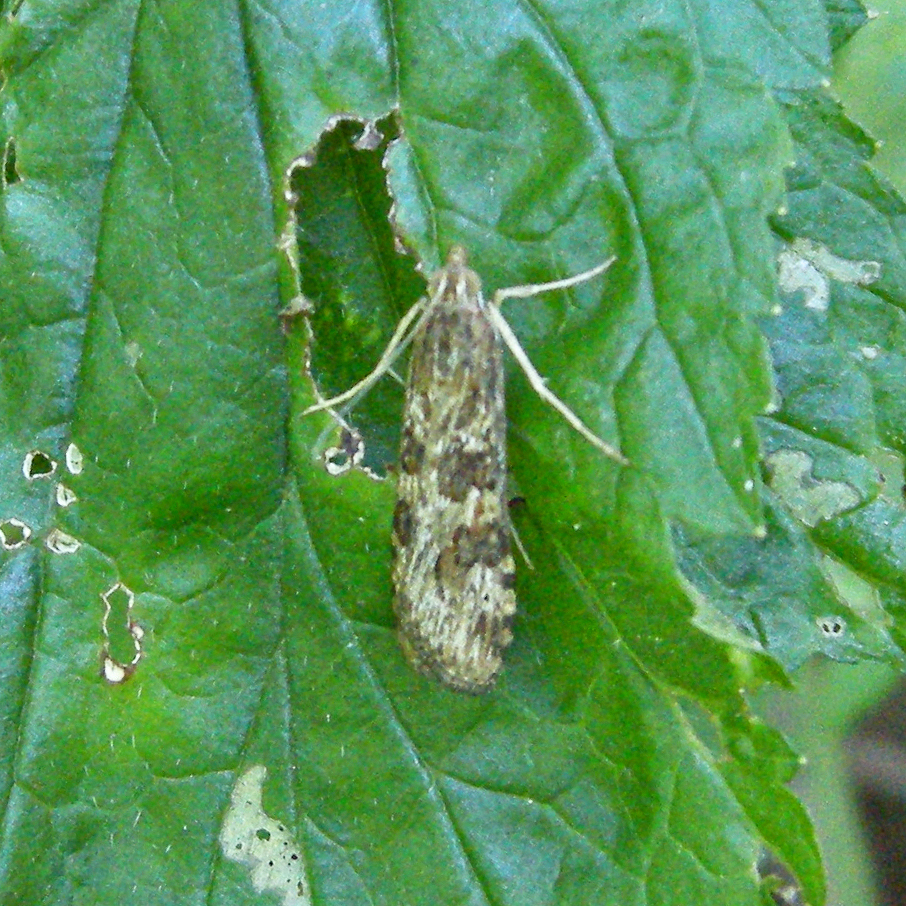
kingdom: Animalia
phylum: Arthropoda
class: Insecta
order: Lepidoptera
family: Crambidae
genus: Nomophila
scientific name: Nomophila nearctica
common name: American rush veneer
